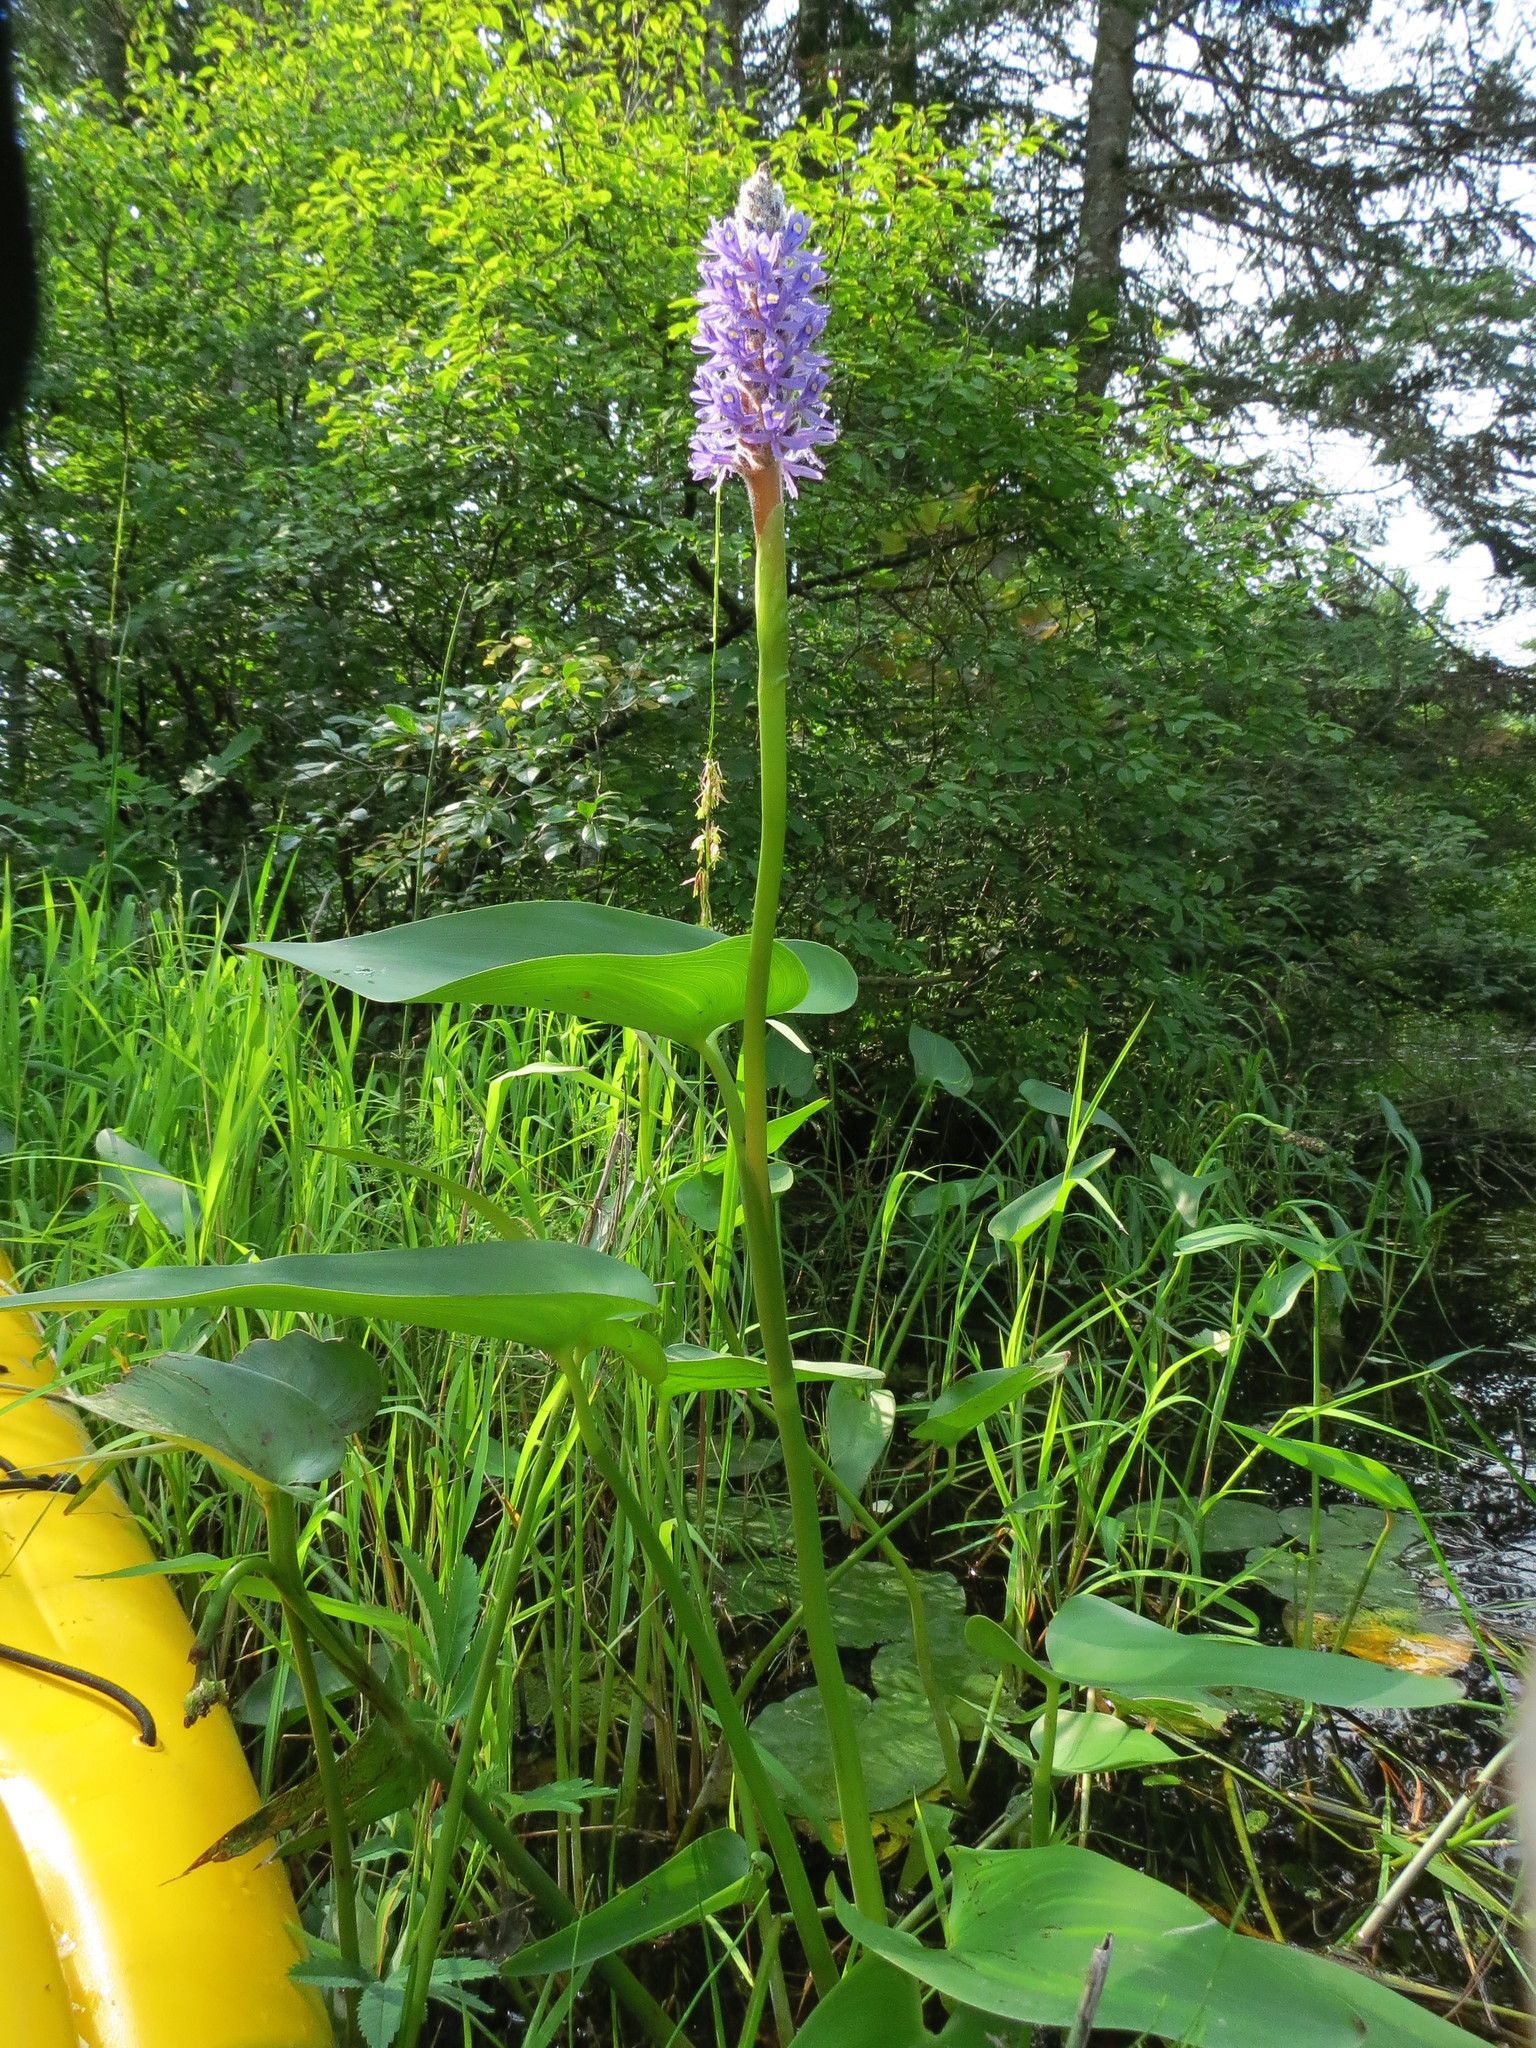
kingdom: Plantae
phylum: Tracheophyta
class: Liliopsida
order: Commelinales
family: Pontederiaceae
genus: Pontederia
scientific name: Pontederia cordata
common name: Pickerelweed
